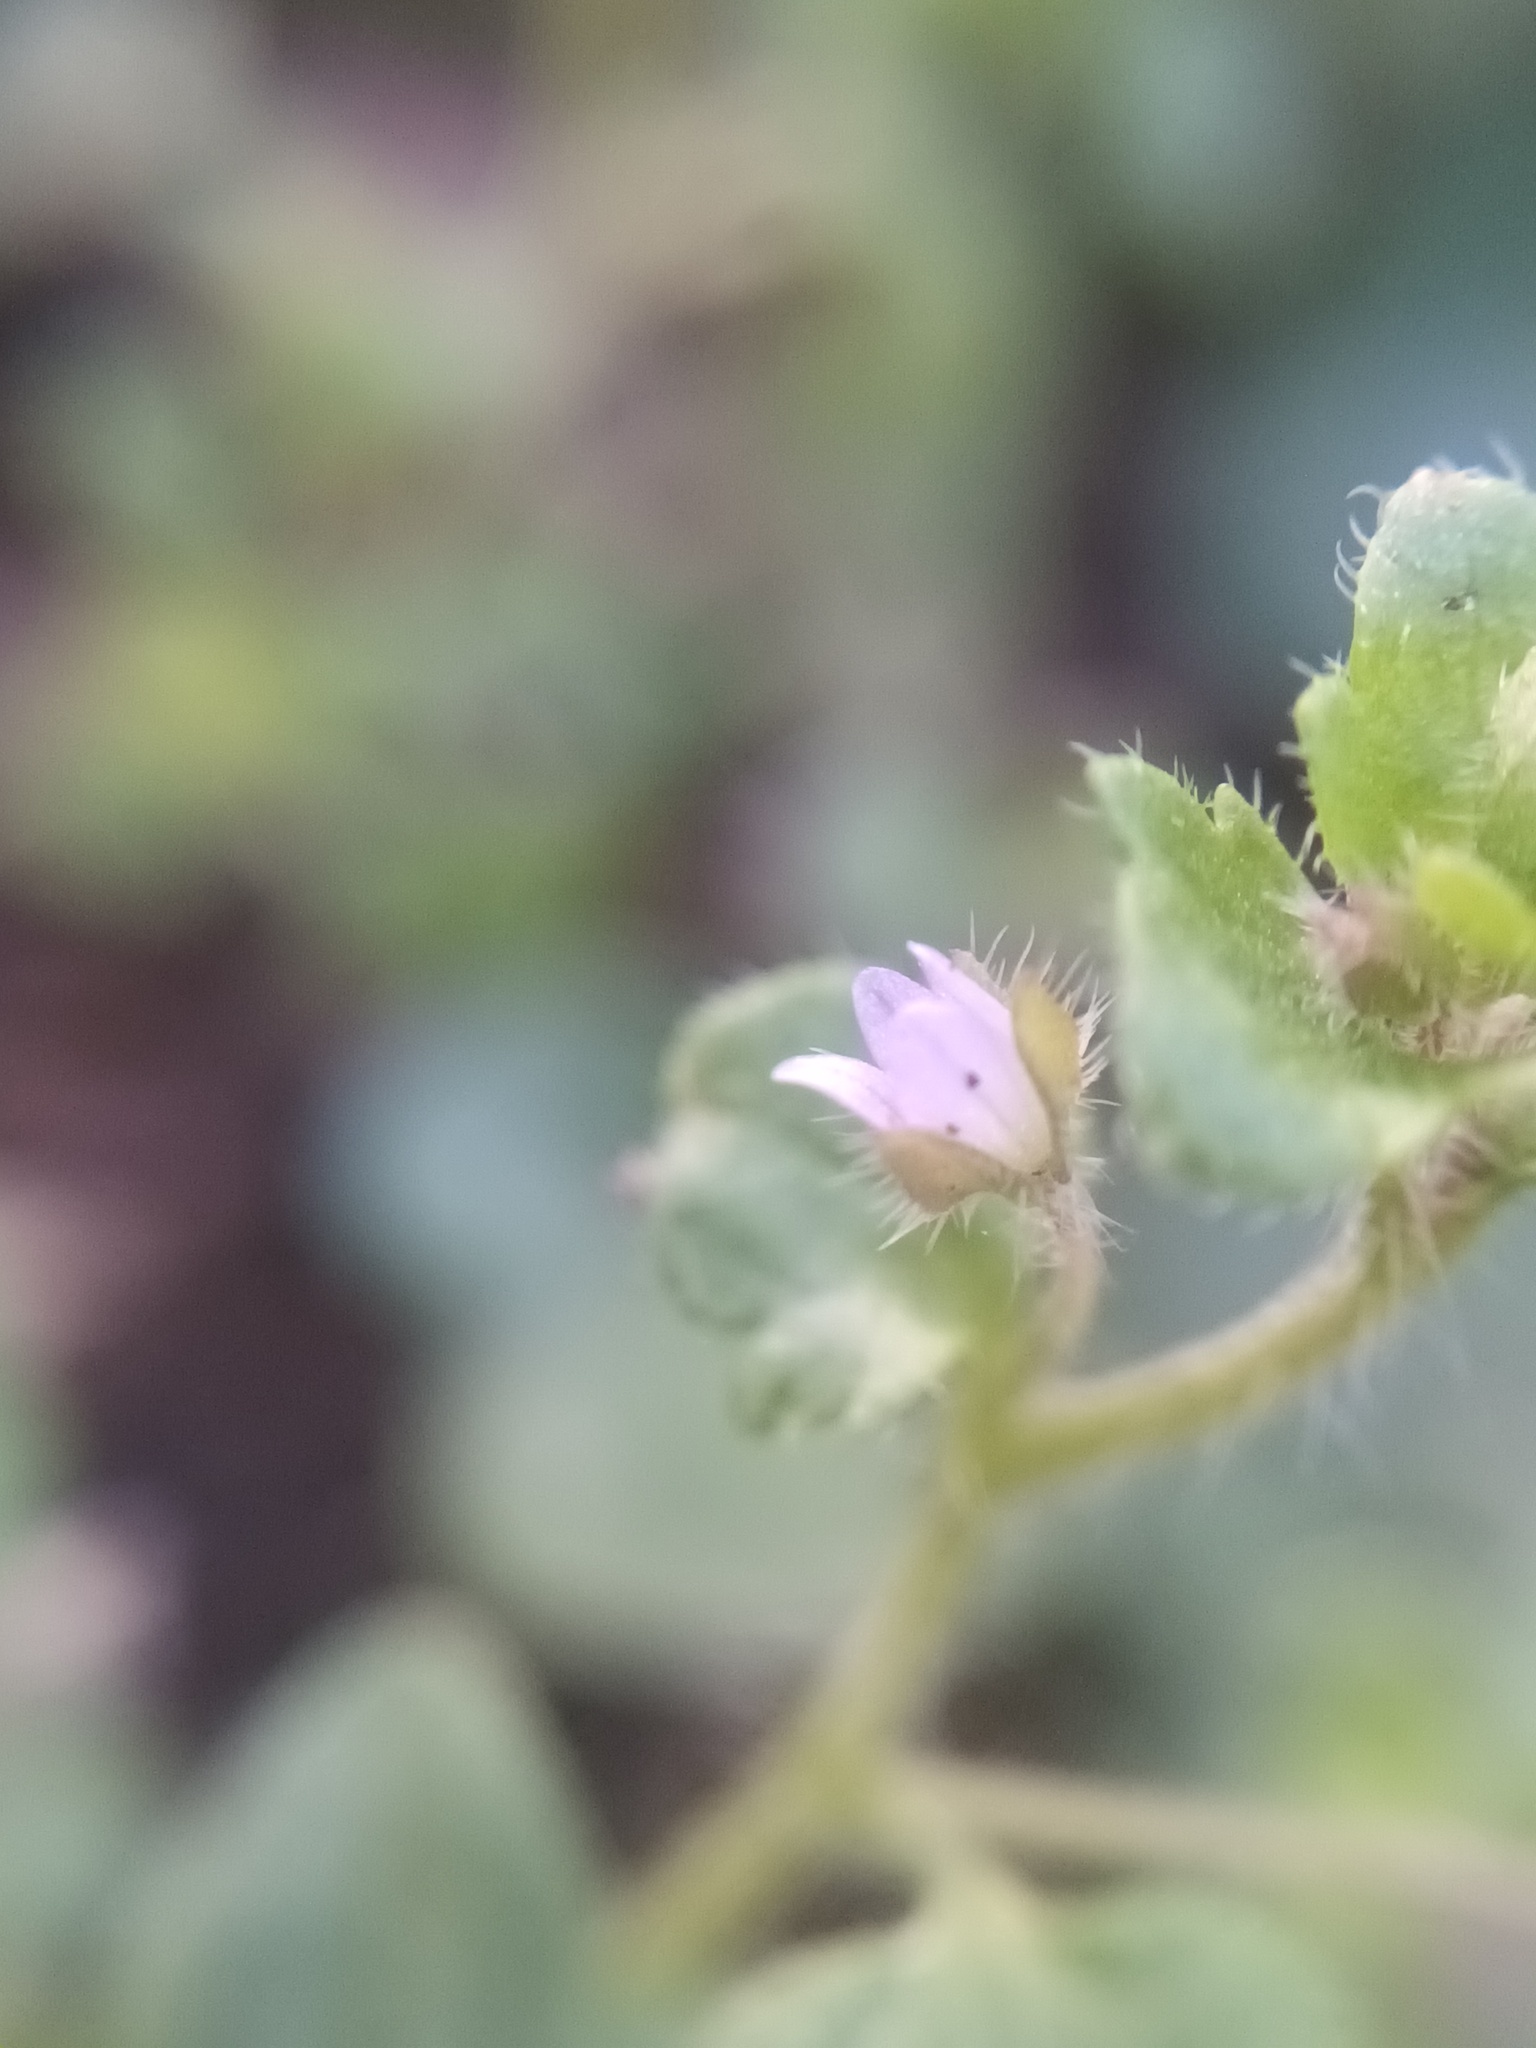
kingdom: Plantae
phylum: Tracheophyta
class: Magnoliopsida
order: Lamiales
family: Plantaginaceae
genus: Veronica
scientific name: Veronica sublobata
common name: False ivy-leaved speedwell
